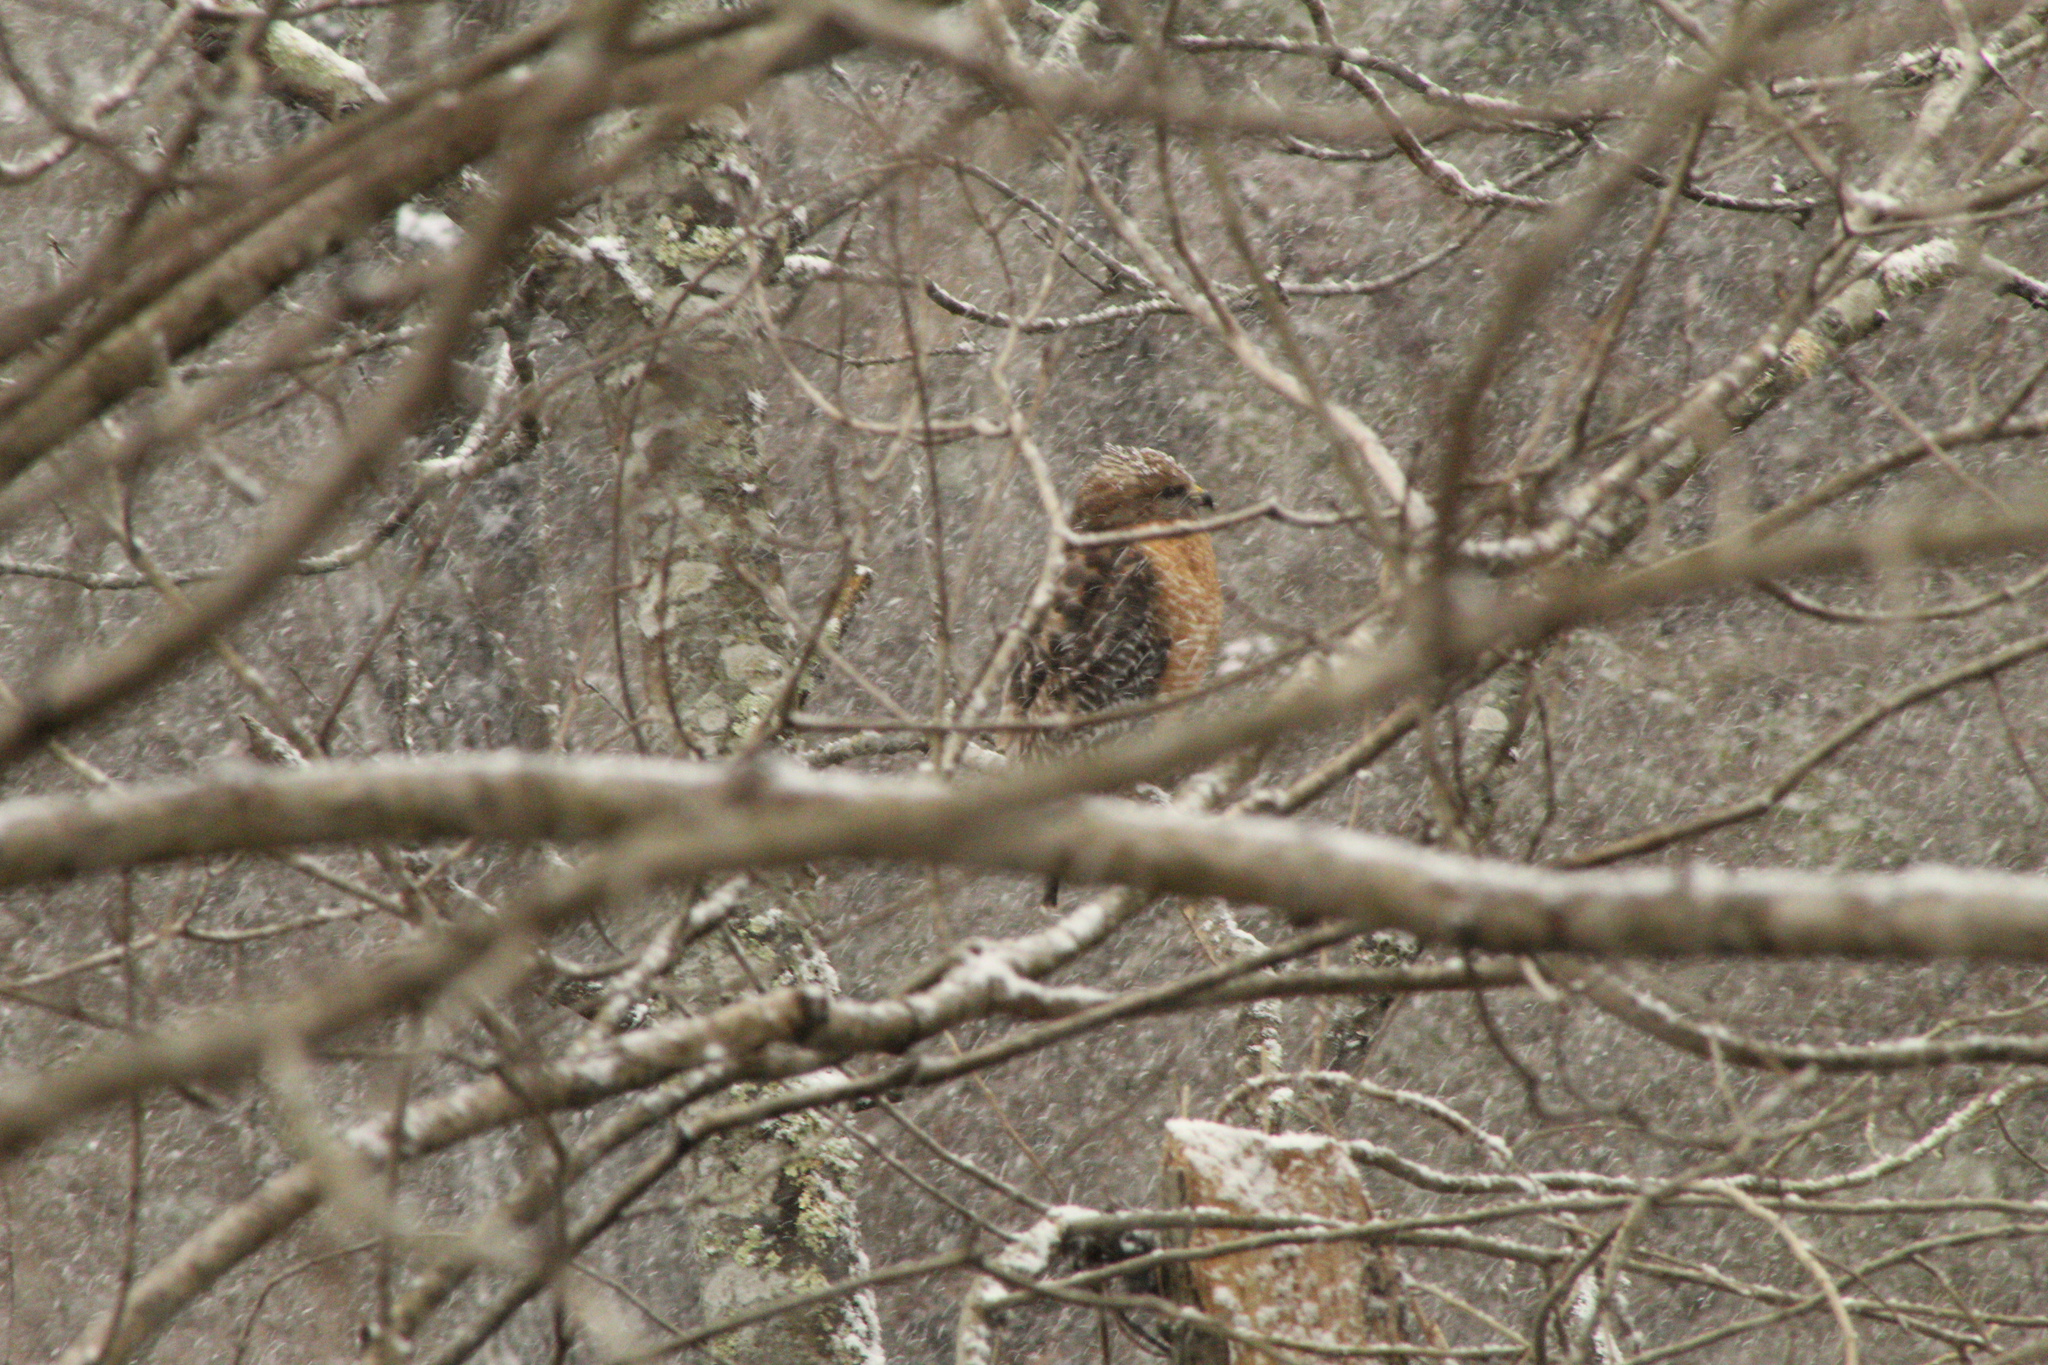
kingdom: Animalia
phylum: Chordata
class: Aves
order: Accipitriformes
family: Accipitridae
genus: Buteo
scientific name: Buteo lineatus
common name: Red-shouldered hawk
